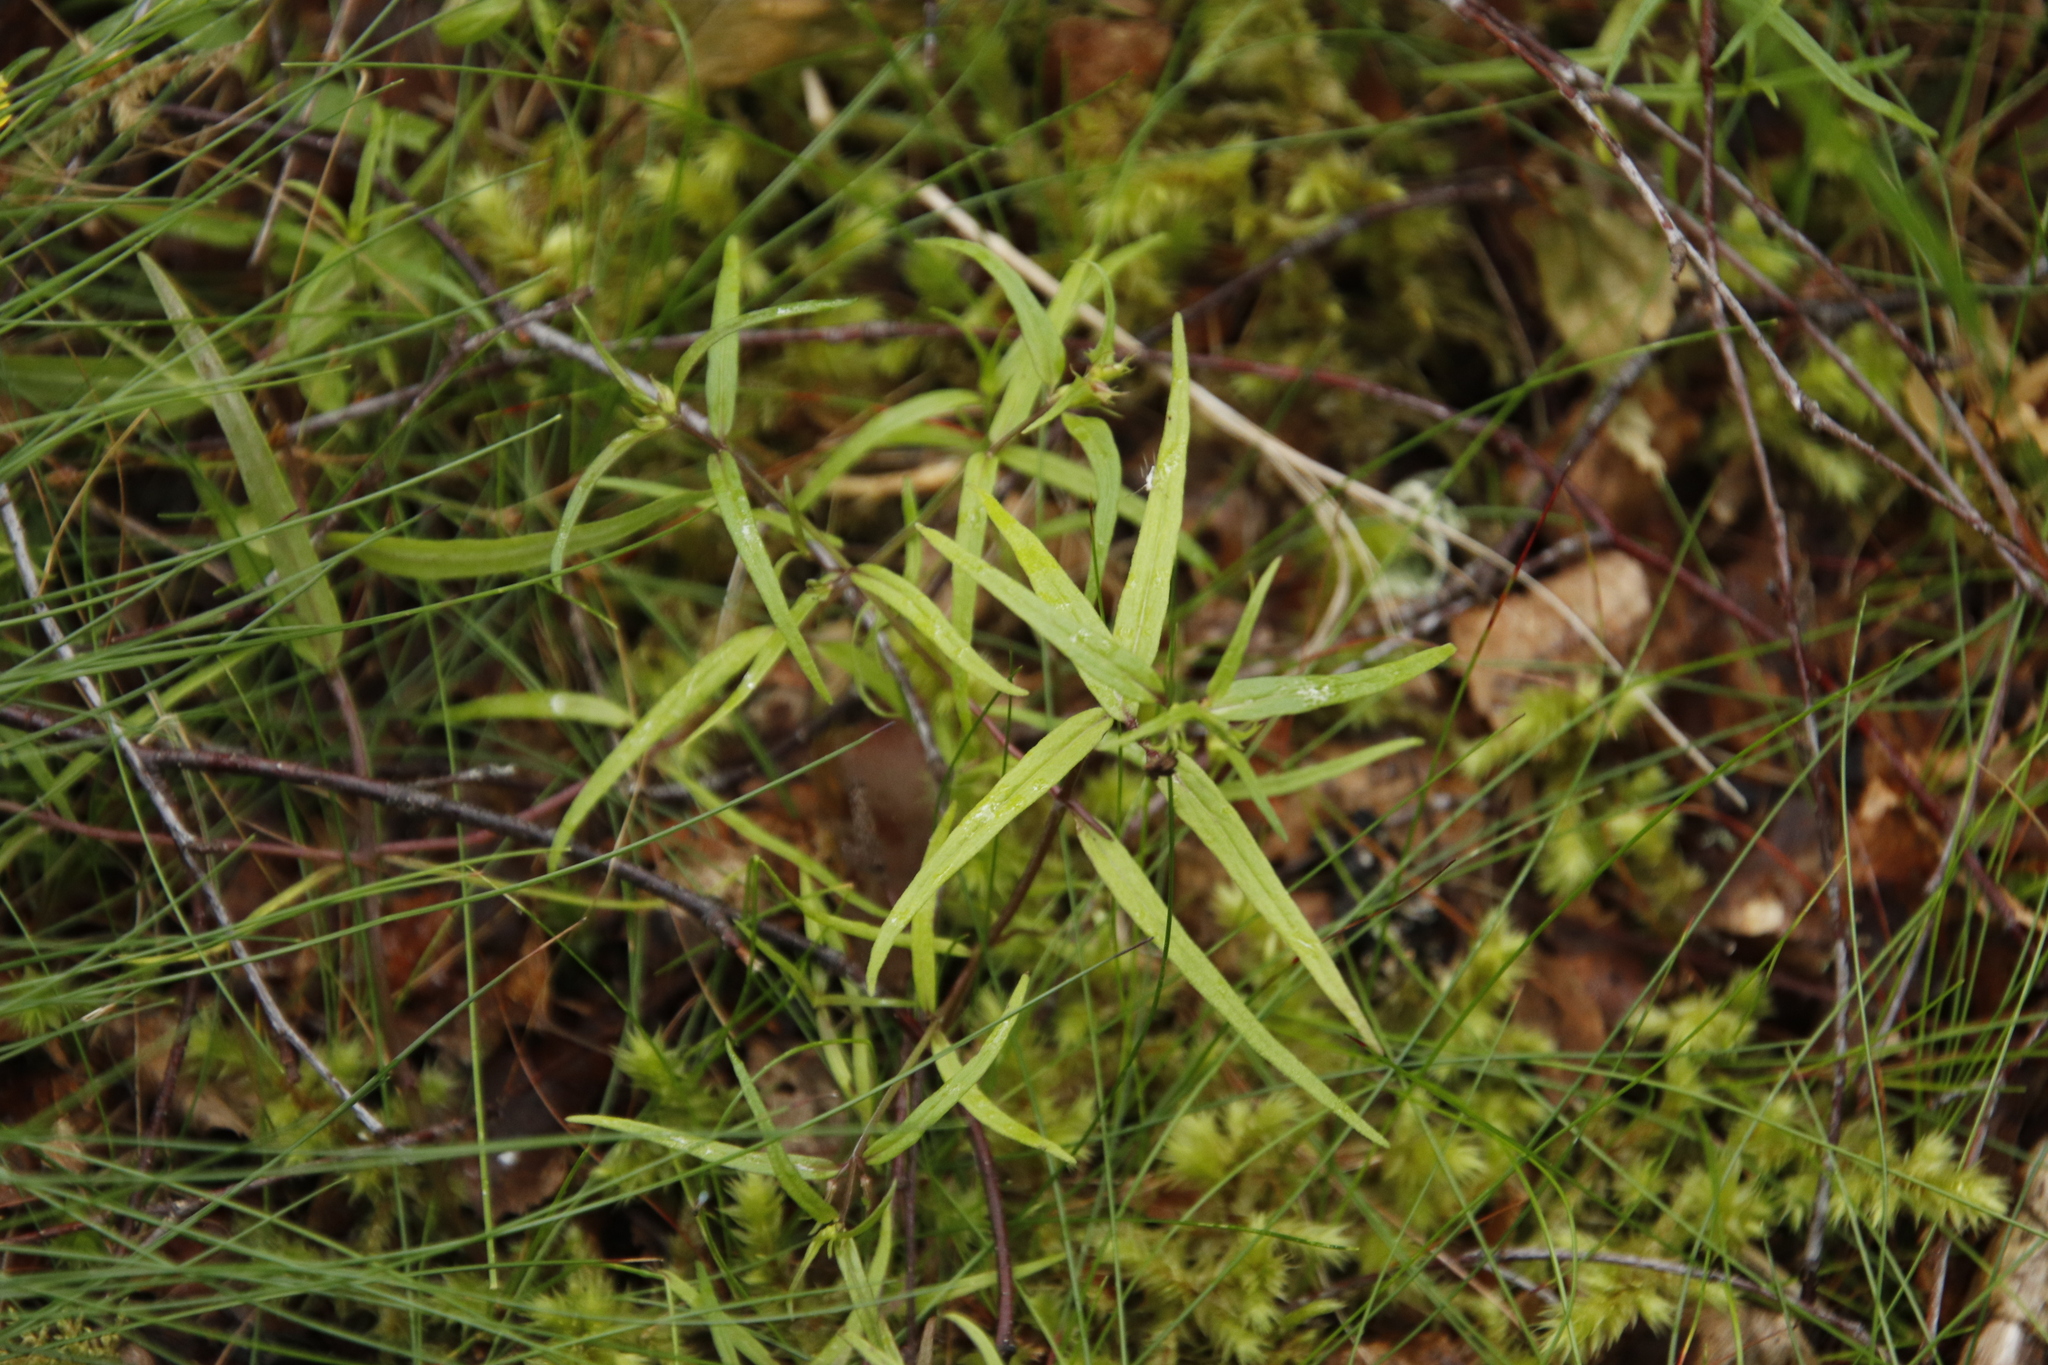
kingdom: Plantae
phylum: Tracheophyta
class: Magnoliopsida
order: Lamiales
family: Orobanchaceae
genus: Melampyrum
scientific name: Melampyrum pratense
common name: Common cow-wheat
